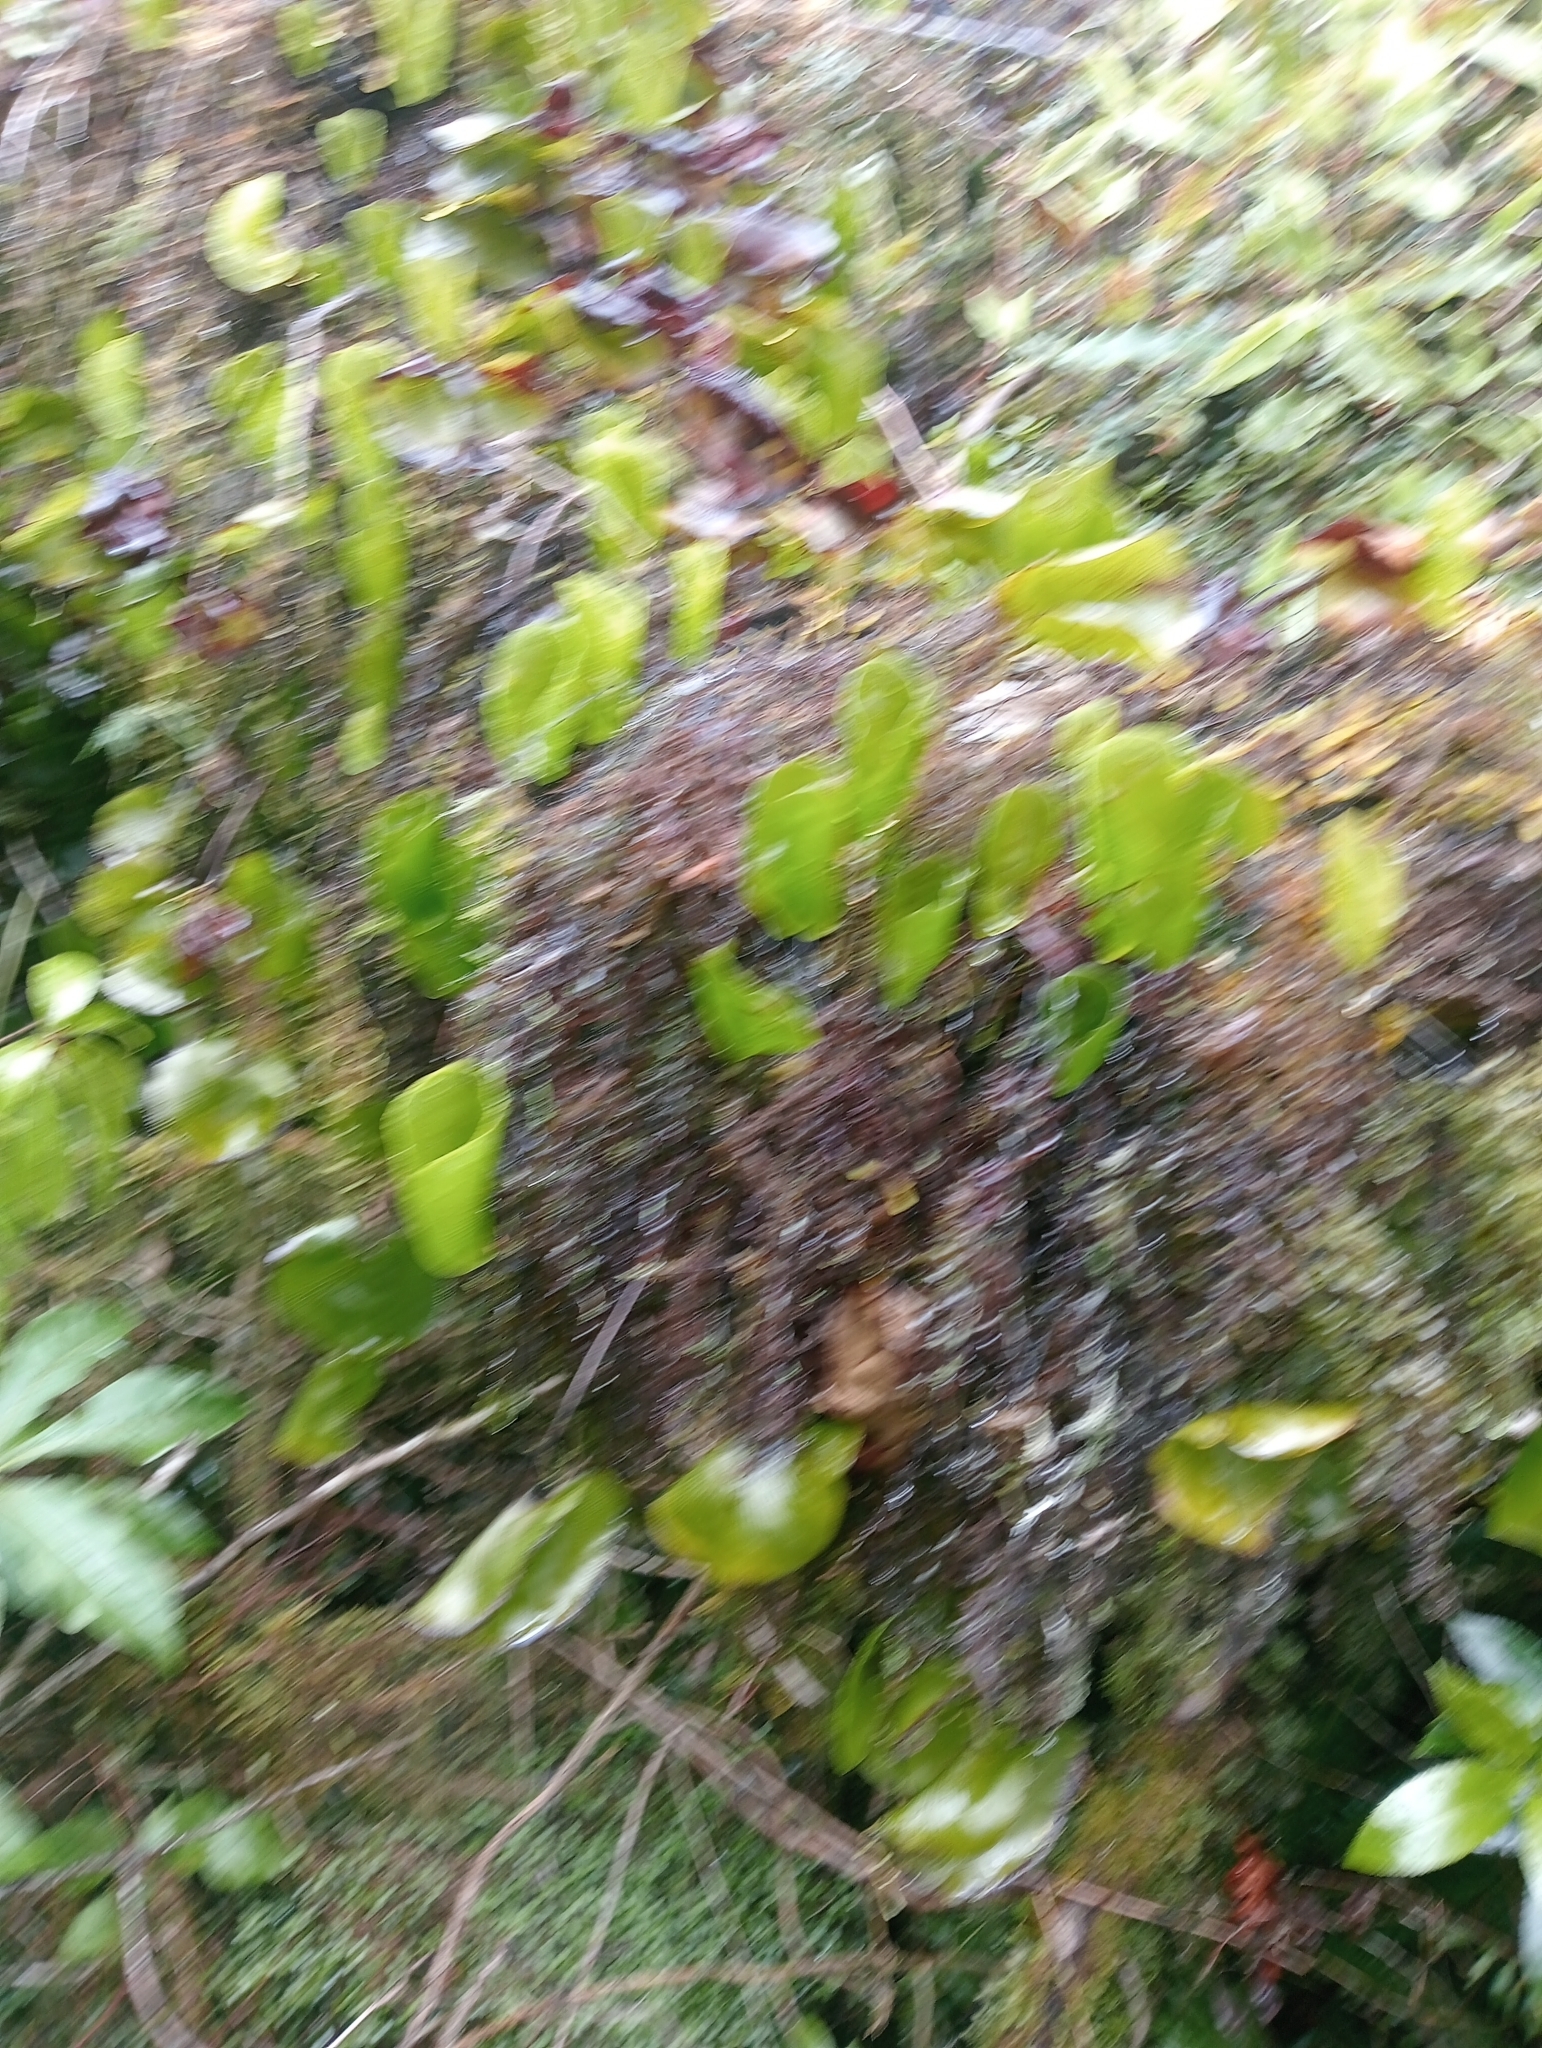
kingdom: Plantae
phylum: Tracheophyta
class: Polypodiopsida
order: Hymenophyllales
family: Hymenophyllaceae
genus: Hymenophyllum
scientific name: Hymenophyllum nephrophyllum
